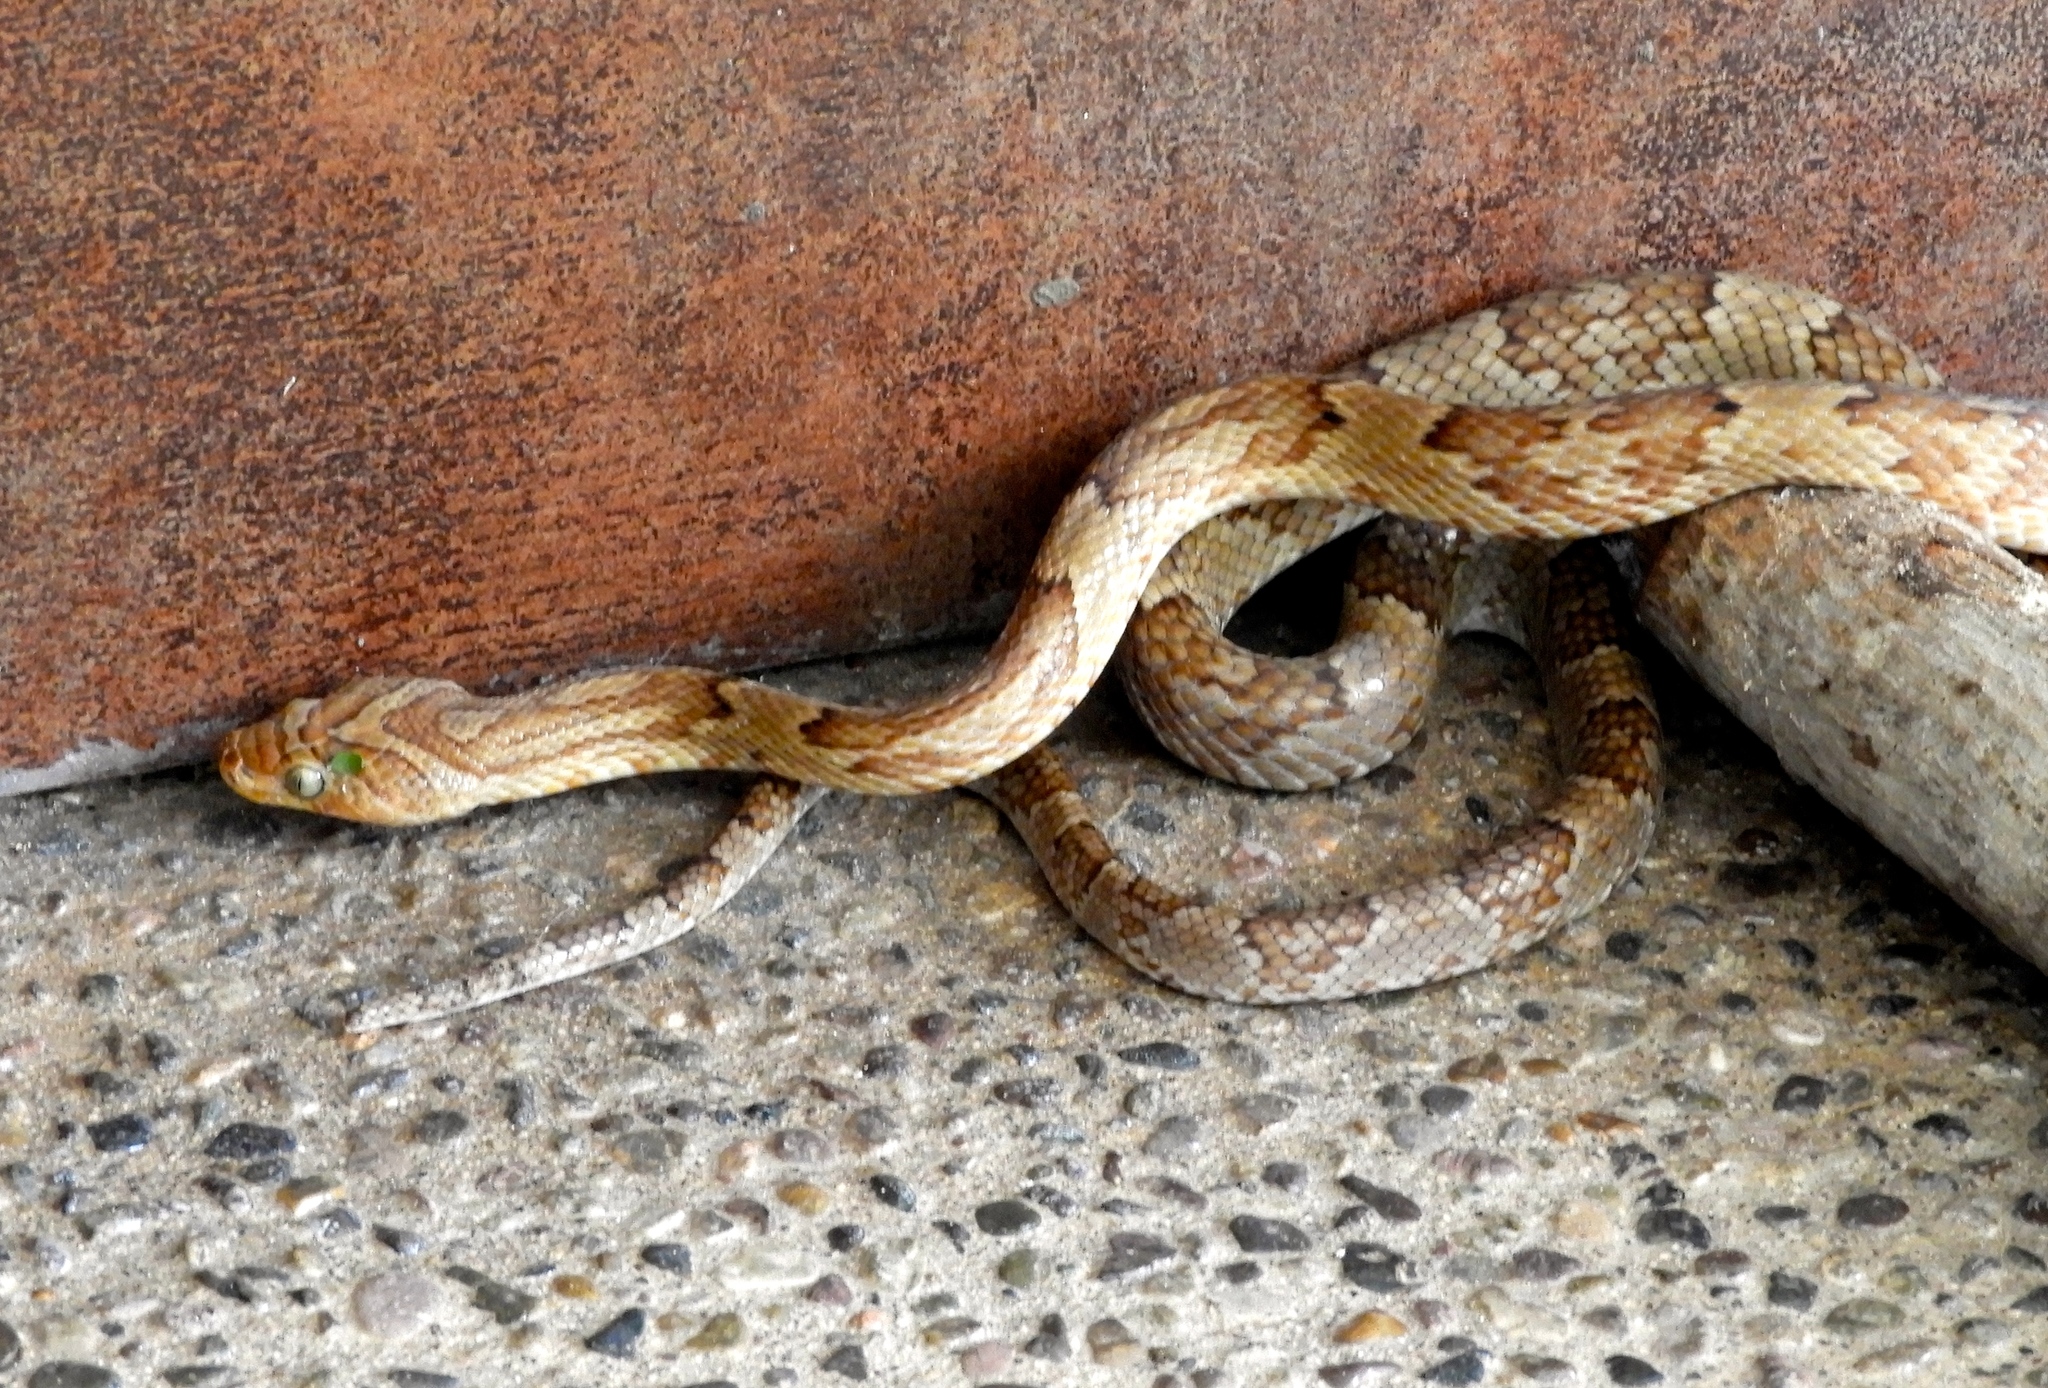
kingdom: Animalia
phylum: Chordata
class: Squamata
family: Colubridae
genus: Trimorphodon
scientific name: Trimorphodon paucimaculatus
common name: Sinaloan lyresnake
